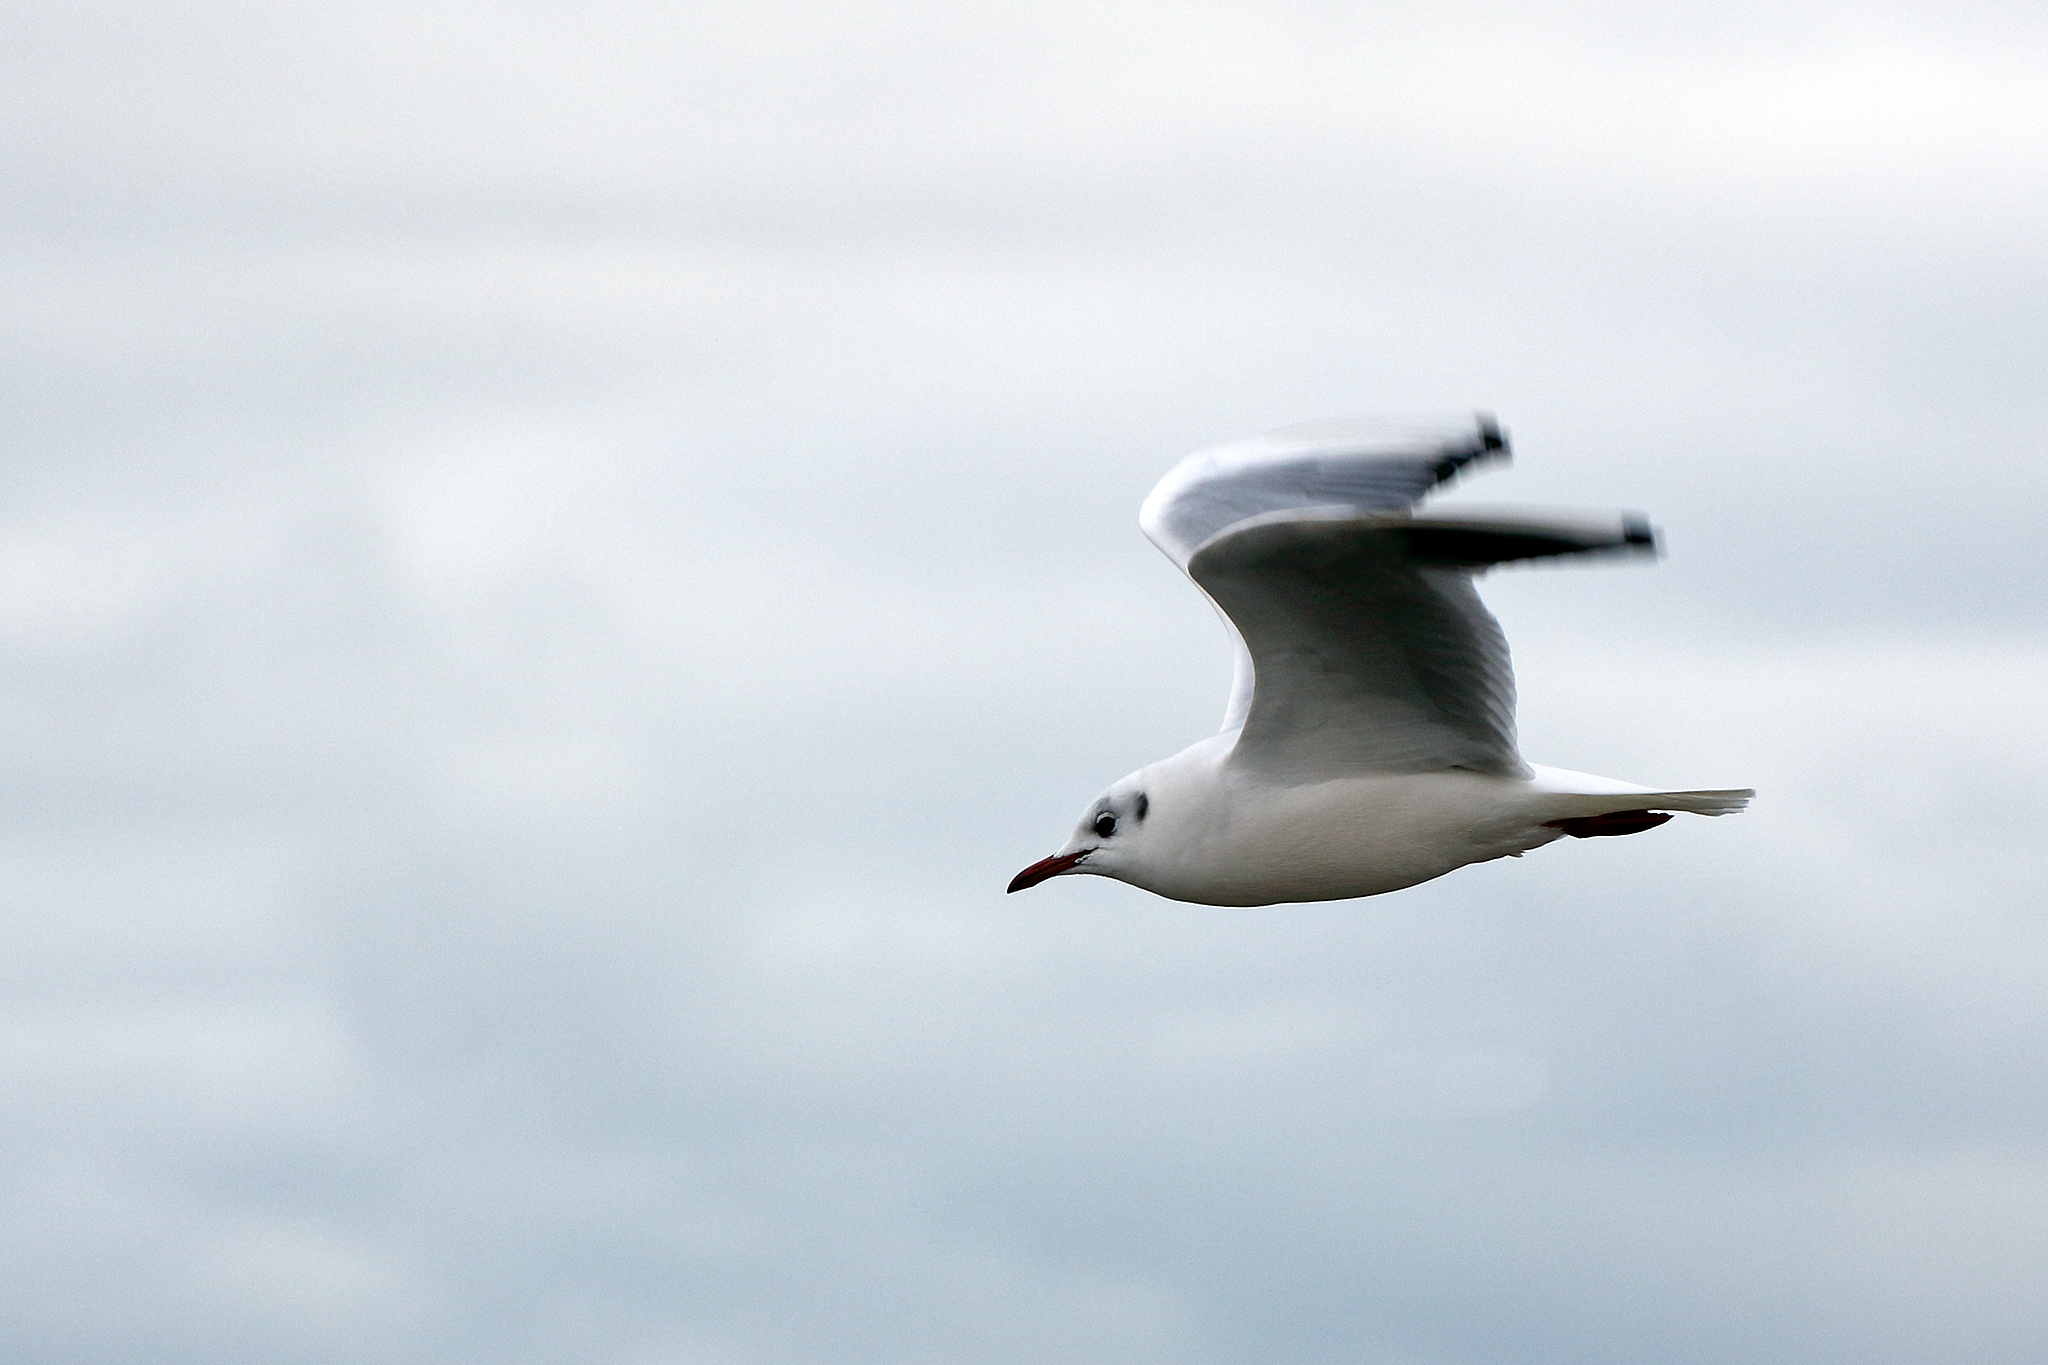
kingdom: Animalia
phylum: Chordata
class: Aves
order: Charadriiformes
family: Laridae
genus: Chroicocephalus
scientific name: Chroicocephalus ridibundus
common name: Black-headed gull
